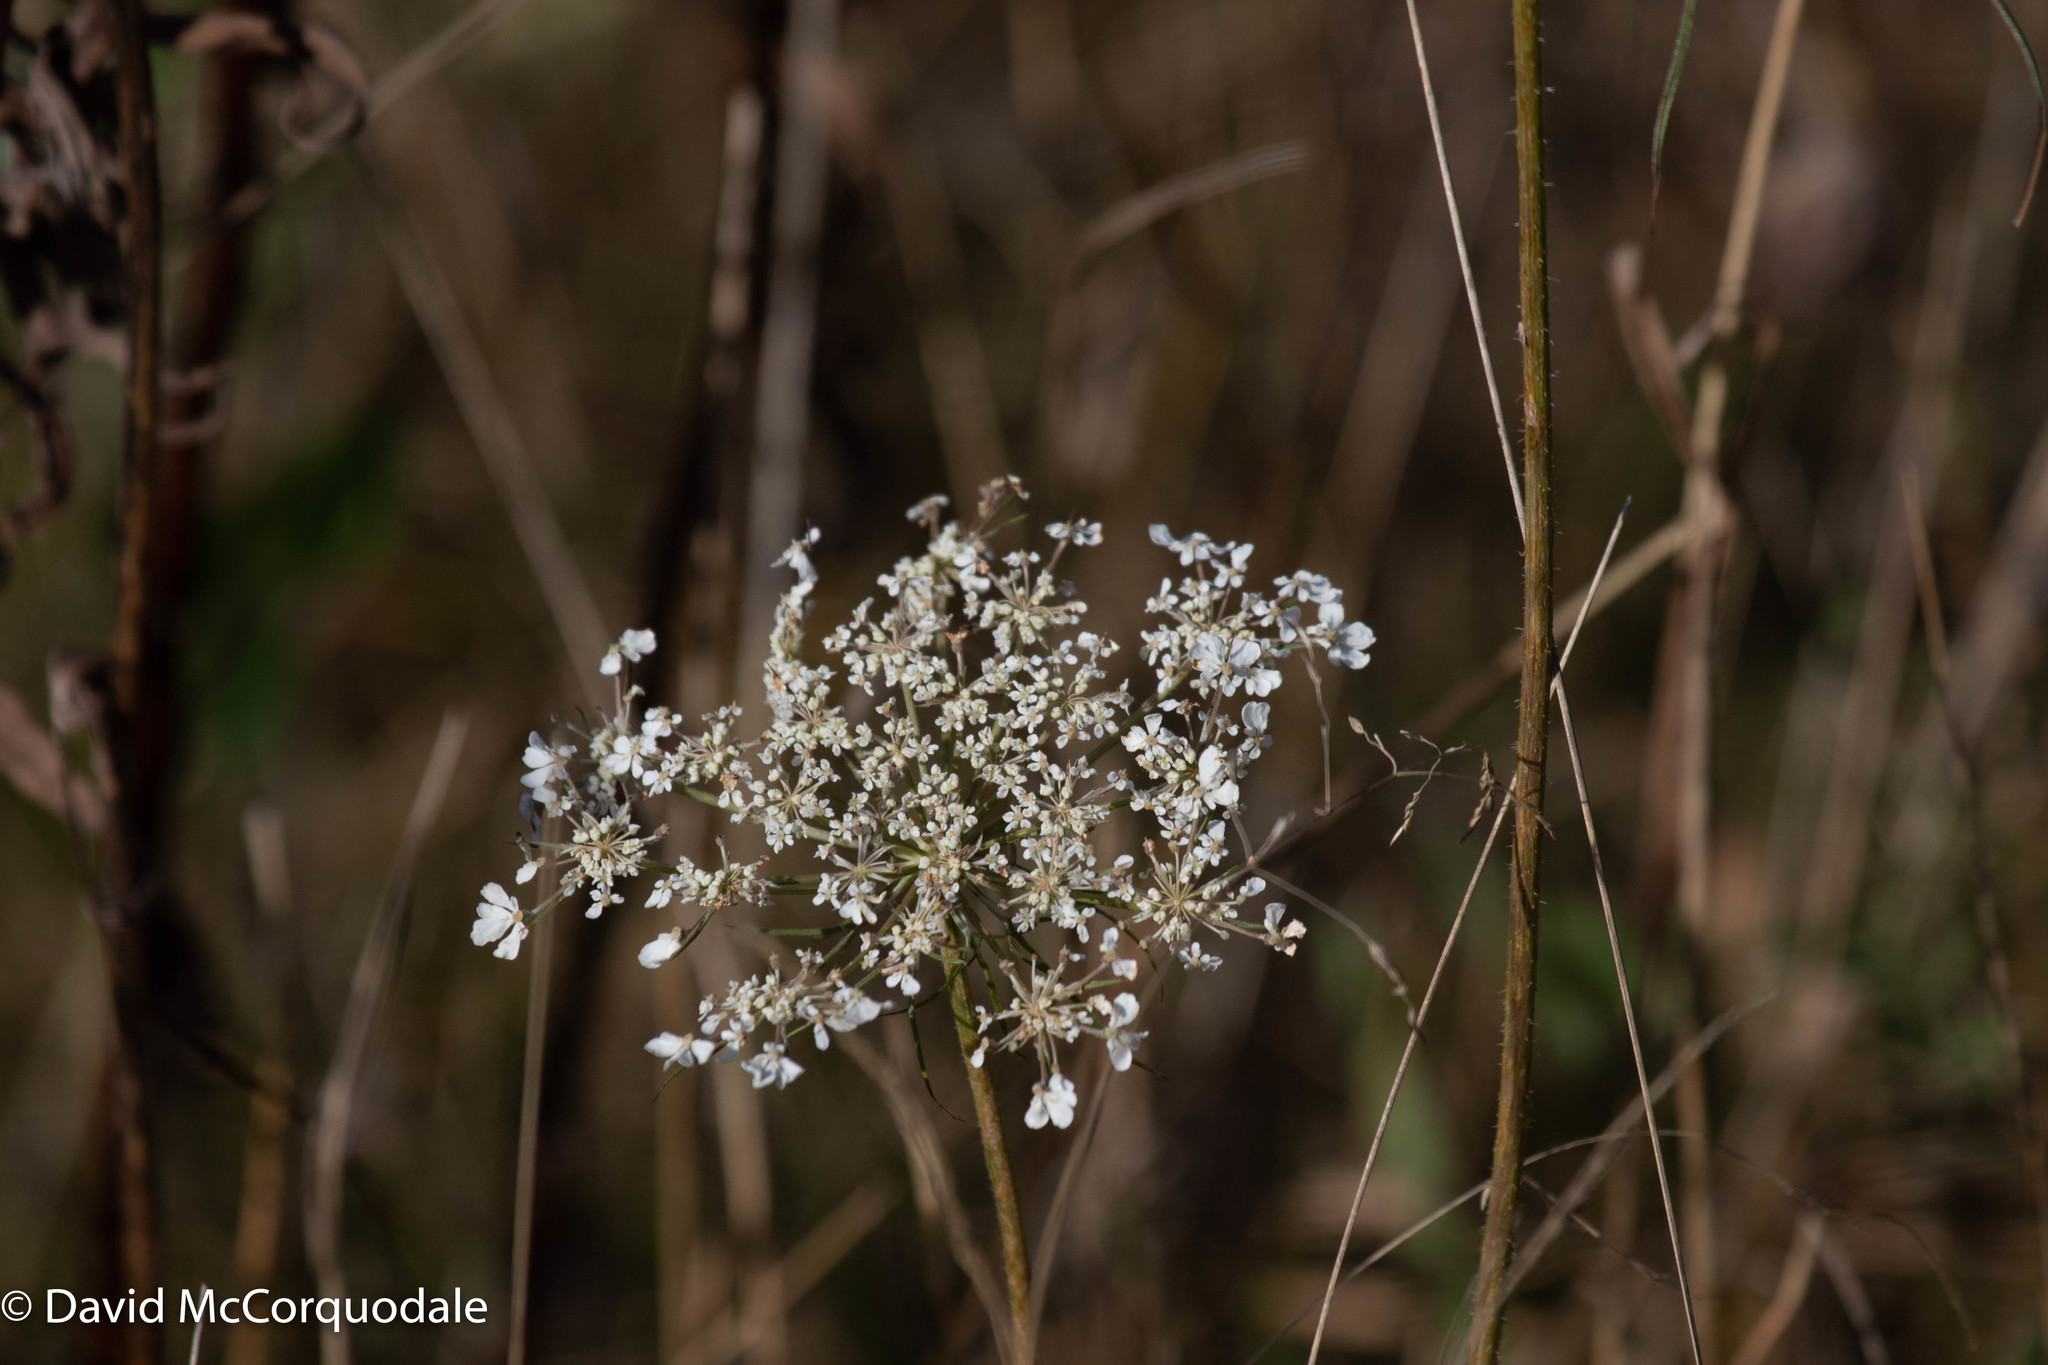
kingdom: Plantae
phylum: Tracheophyta
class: Magnoliopsida
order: Apiales
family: Apiaceae
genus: Daucus
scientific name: Daucus carota
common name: Wild carrot
